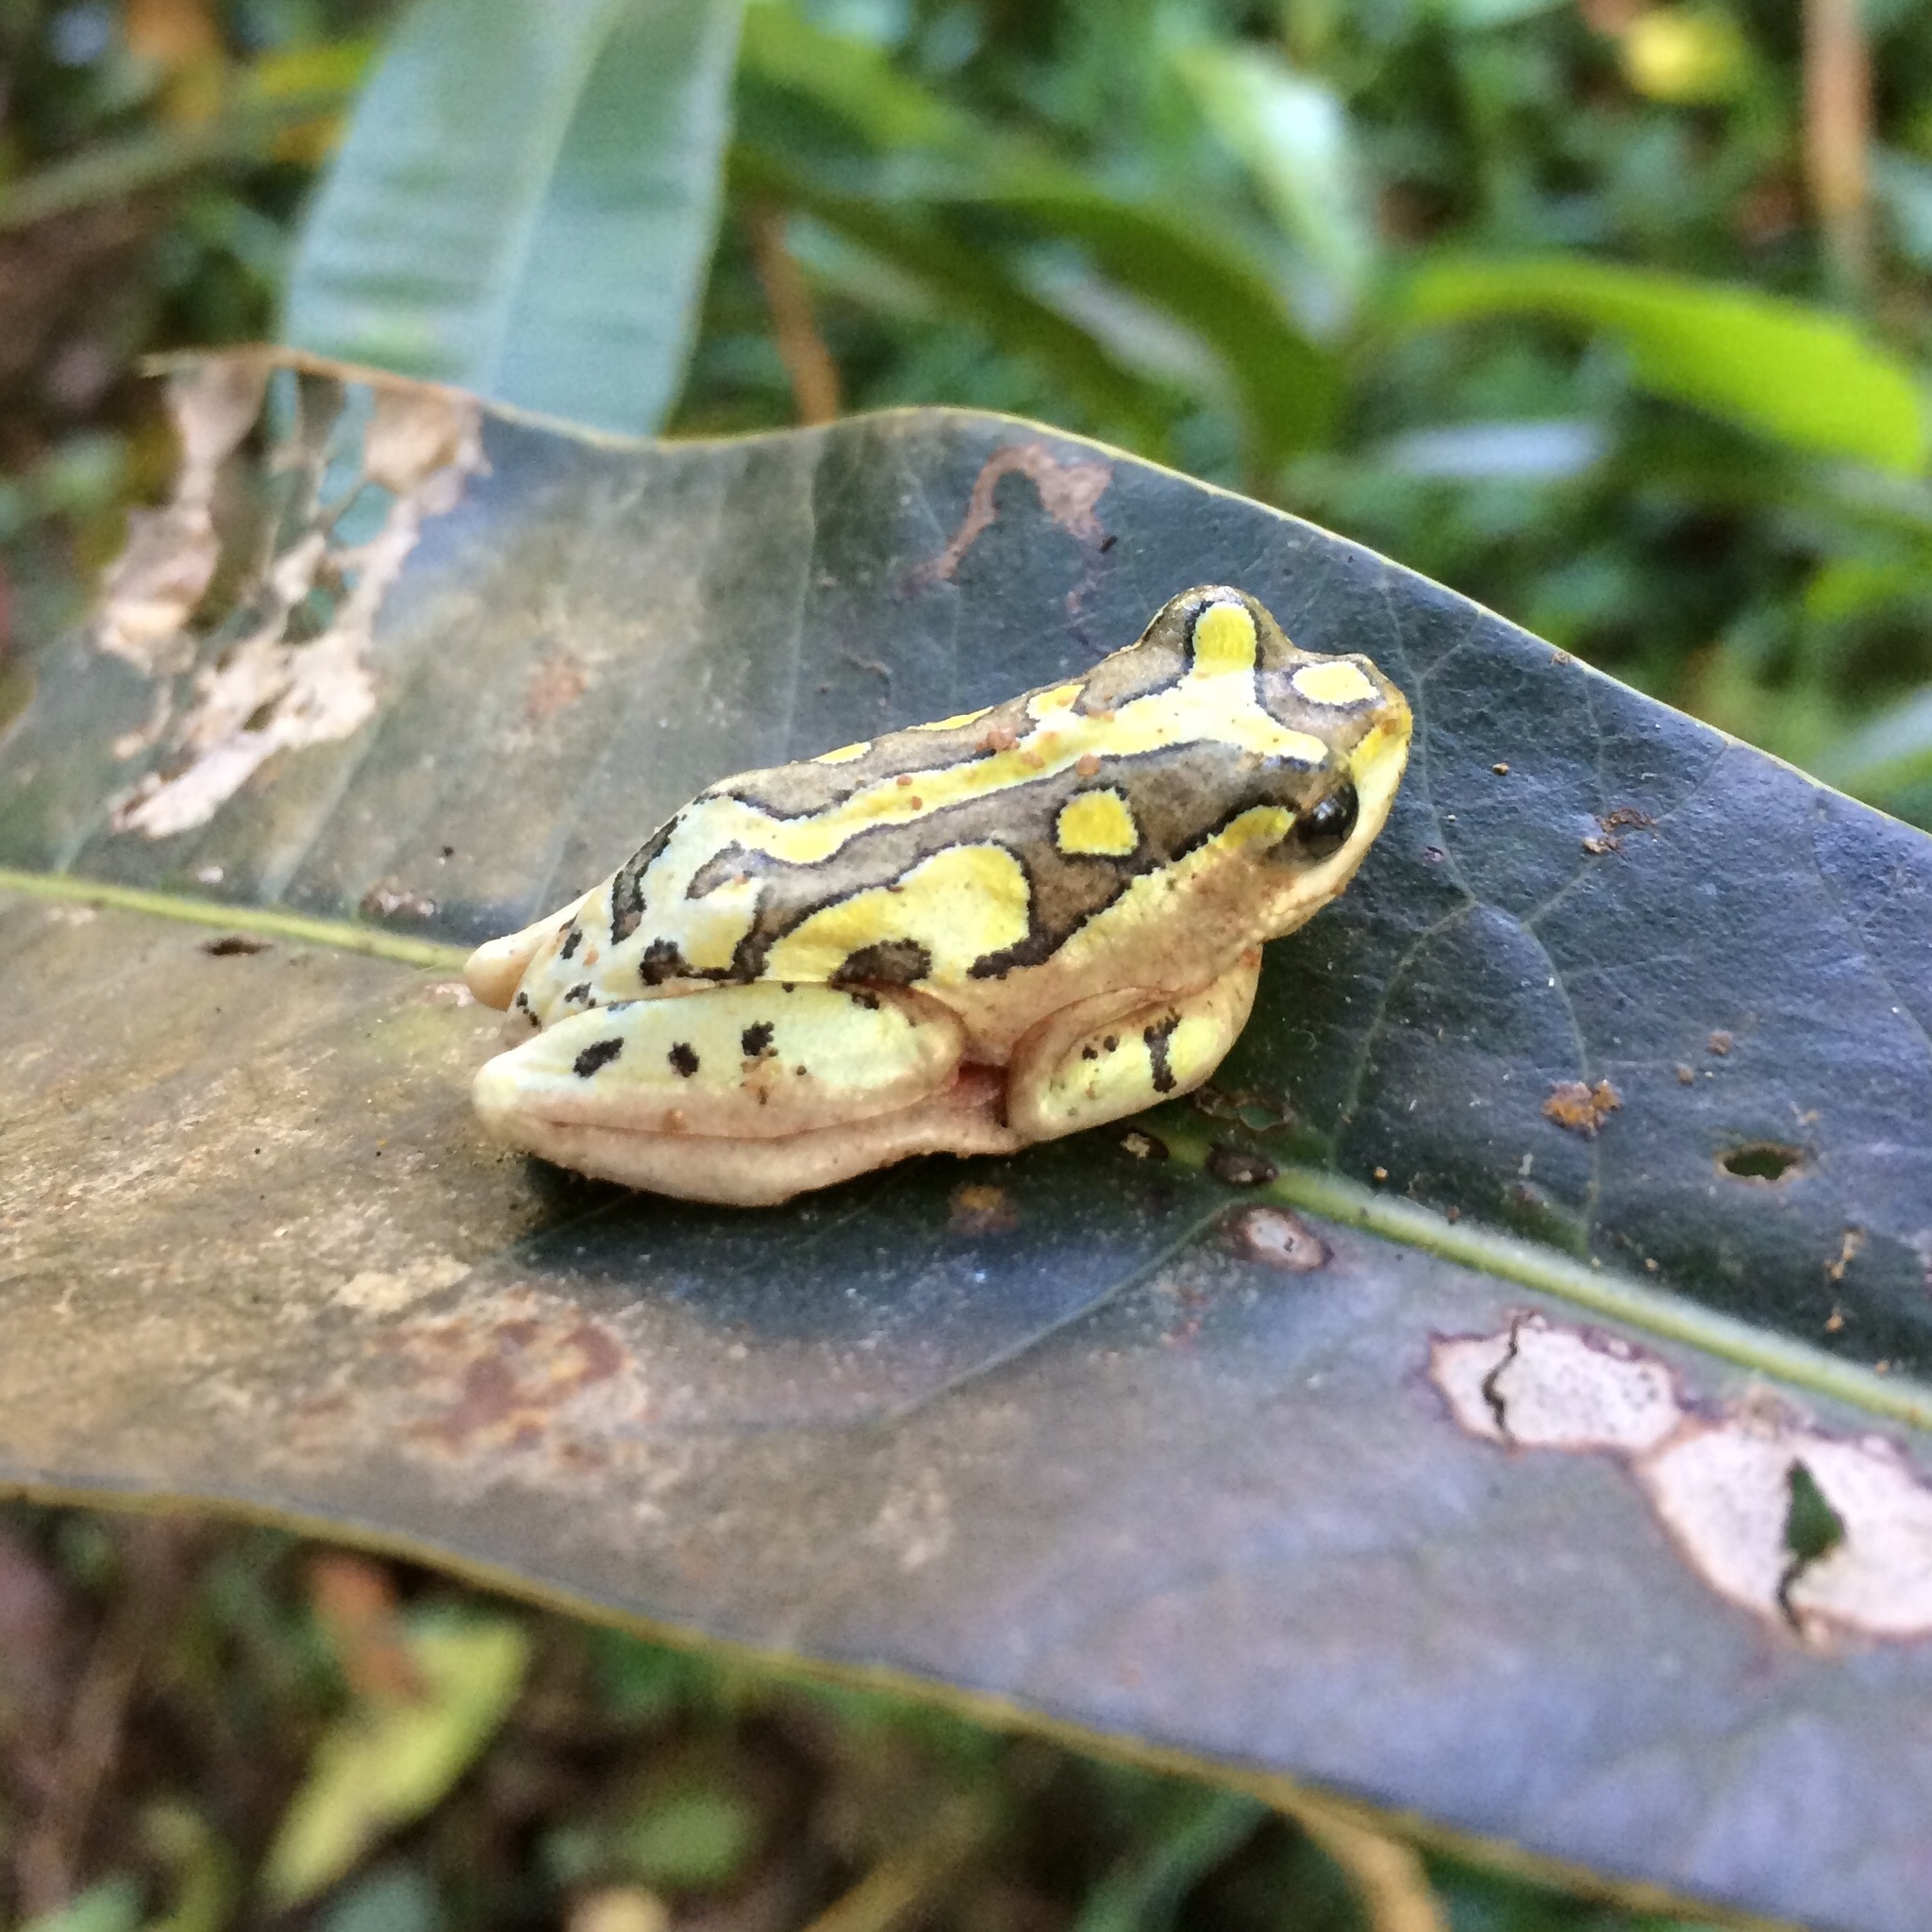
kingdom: Animalia
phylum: Chordata
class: Amphibia
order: Anura
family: Hyperoliidae
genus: Hyperolius
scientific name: Hyperolius marmoratus
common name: Painted reed frog
